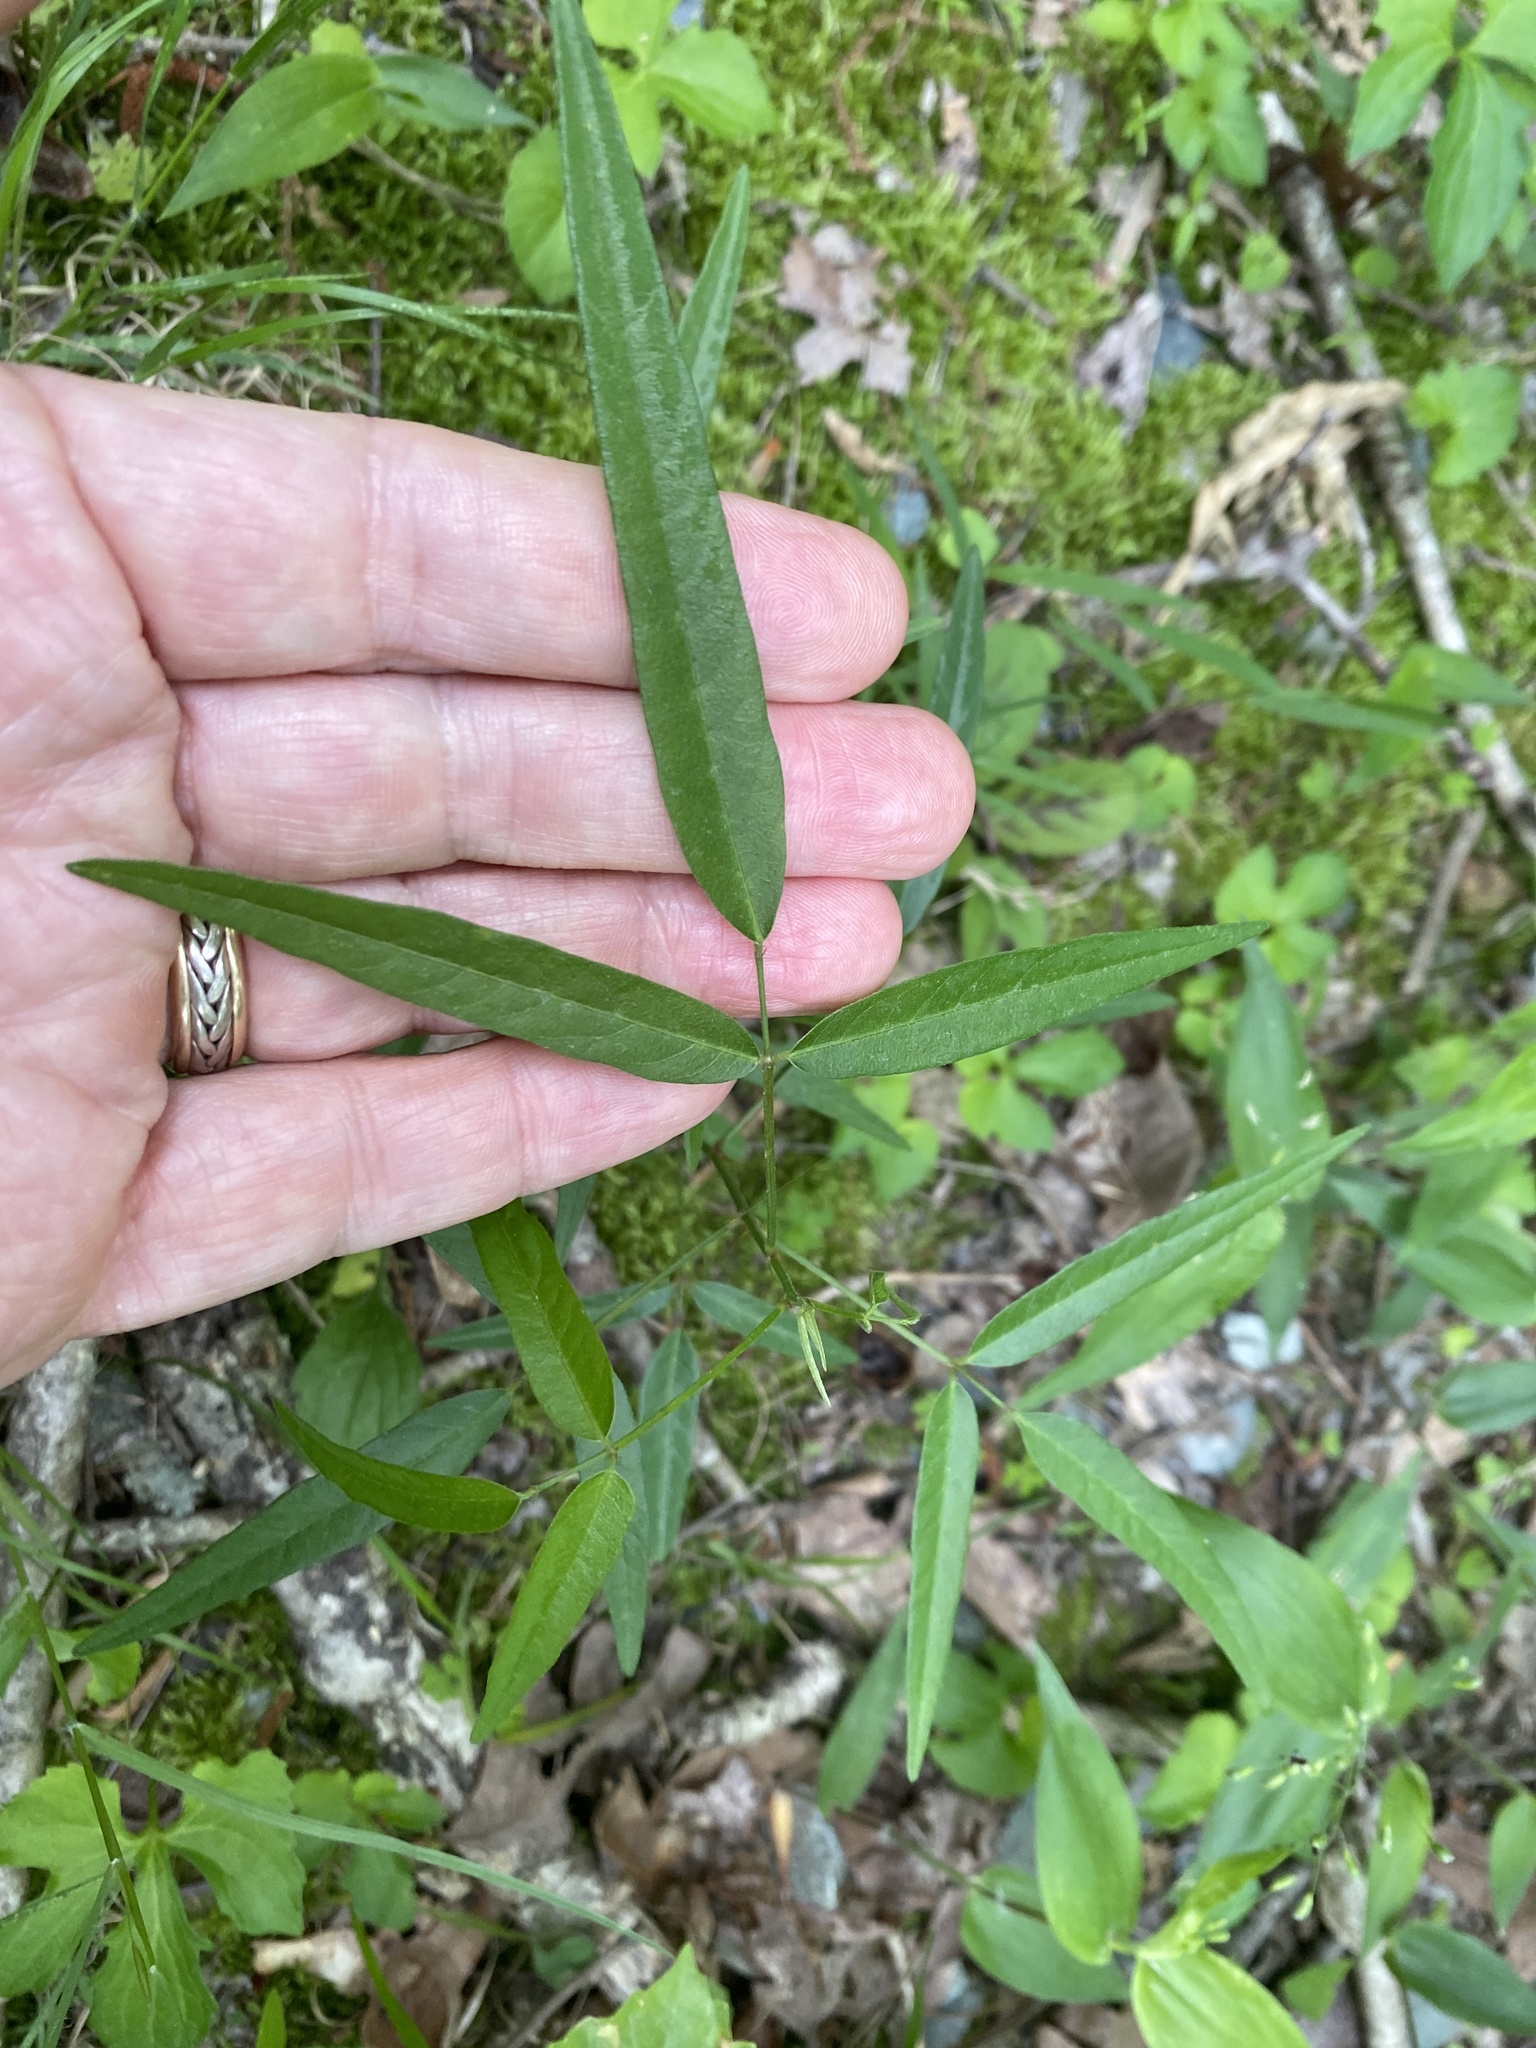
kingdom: Plantae
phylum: Tracheophyta
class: Magnoliopsida
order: Fabales
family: Fabaceae
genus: Desmodium
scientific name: Desmodium paniculatum
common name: Panicled tick-clover
